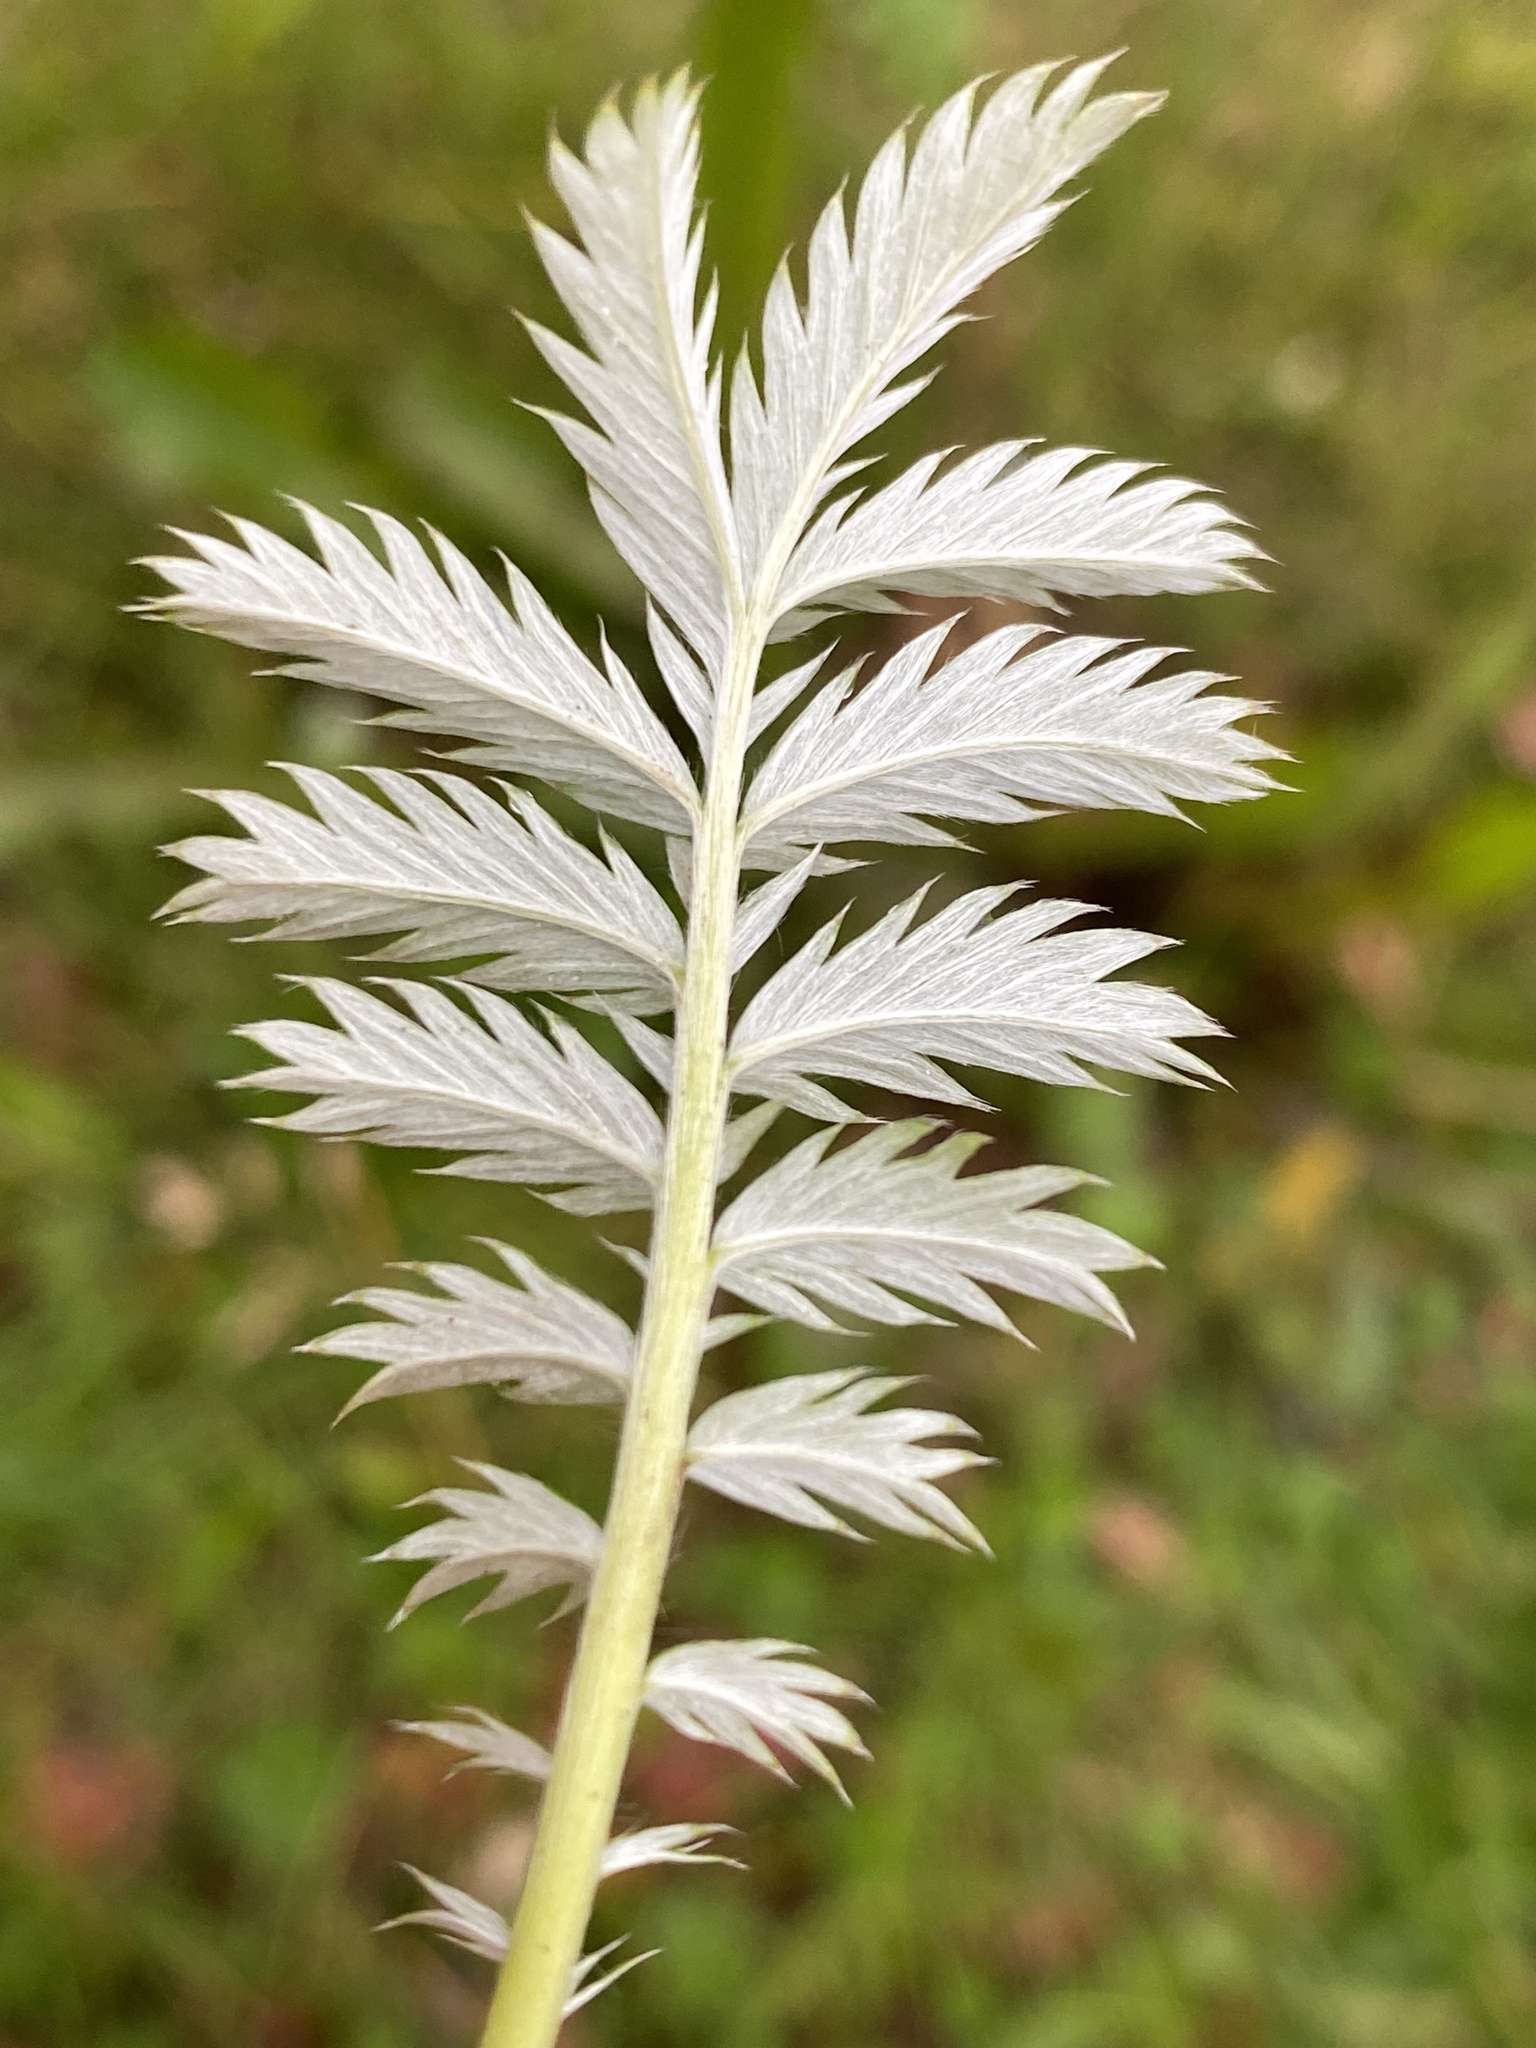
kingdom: Plantae
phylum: Tracheophyta
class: Magnoliopsida
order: Rosales
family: Rosaceae
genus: Argentina
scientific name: Argentina anserina
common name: Common silverweed
